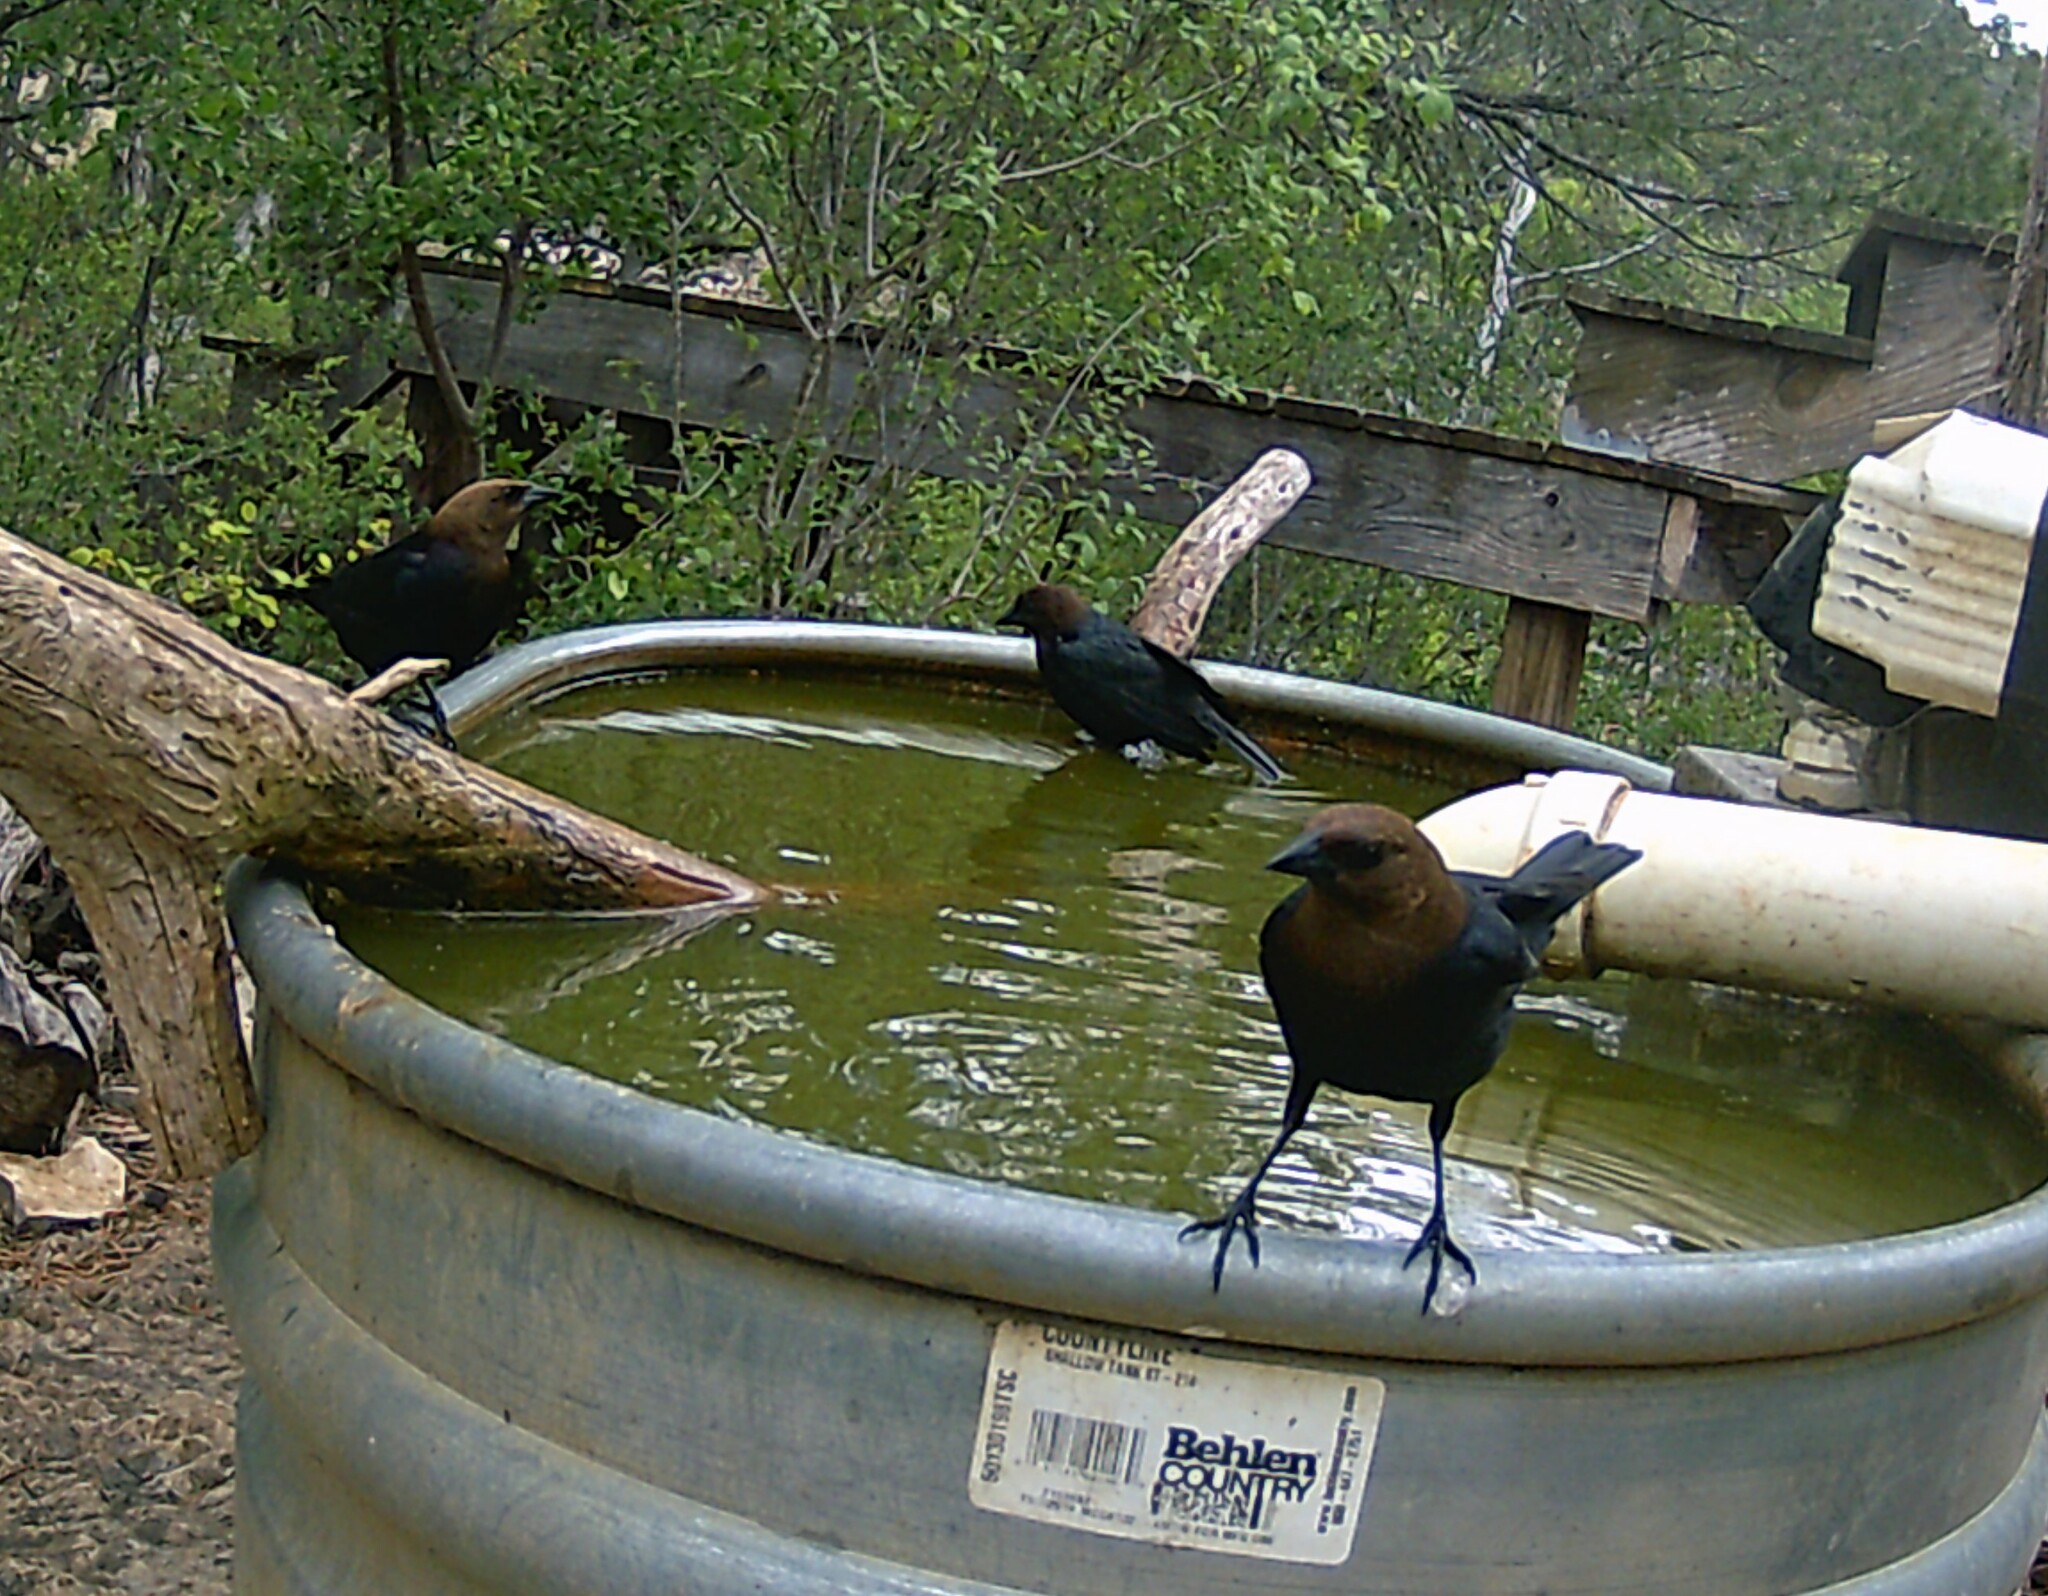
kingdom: Animalia
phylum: Chordata
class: Aves
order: Passeriformes
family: Icteridae
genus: Molothrus
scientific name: Molothrus ater
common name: Brown-headed cowbird
